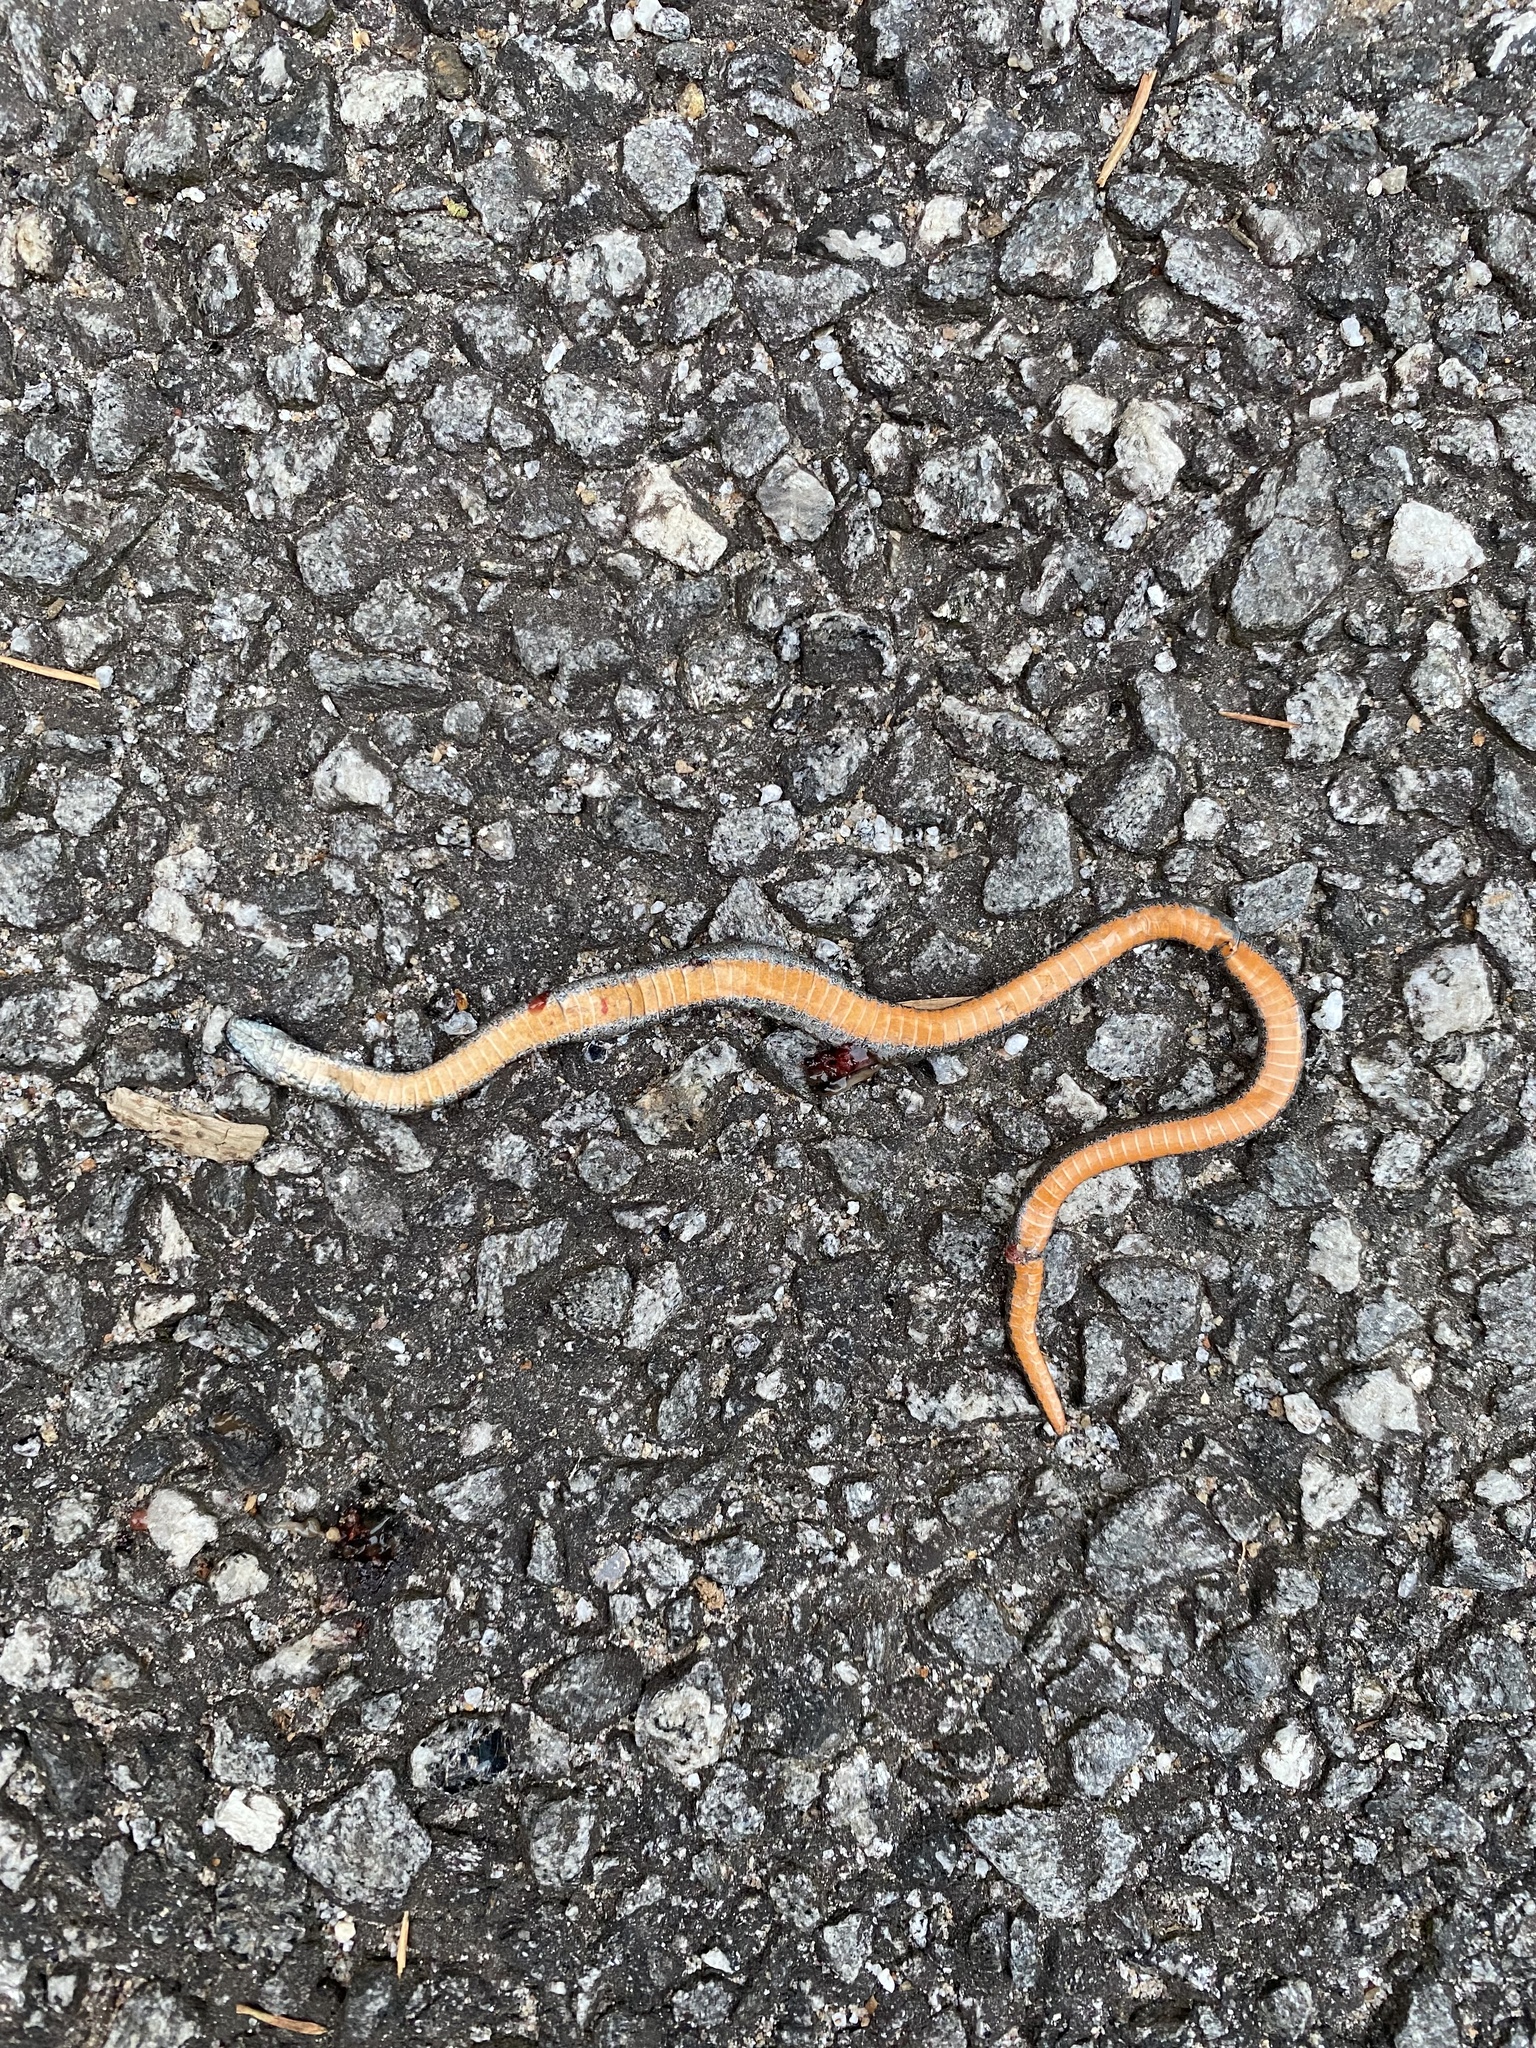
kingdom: Animalia
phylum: Chordata
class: Squamata
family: Colubridae
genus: Storeria
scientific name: Storeria occipitomaculata
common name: Redbelly snake
